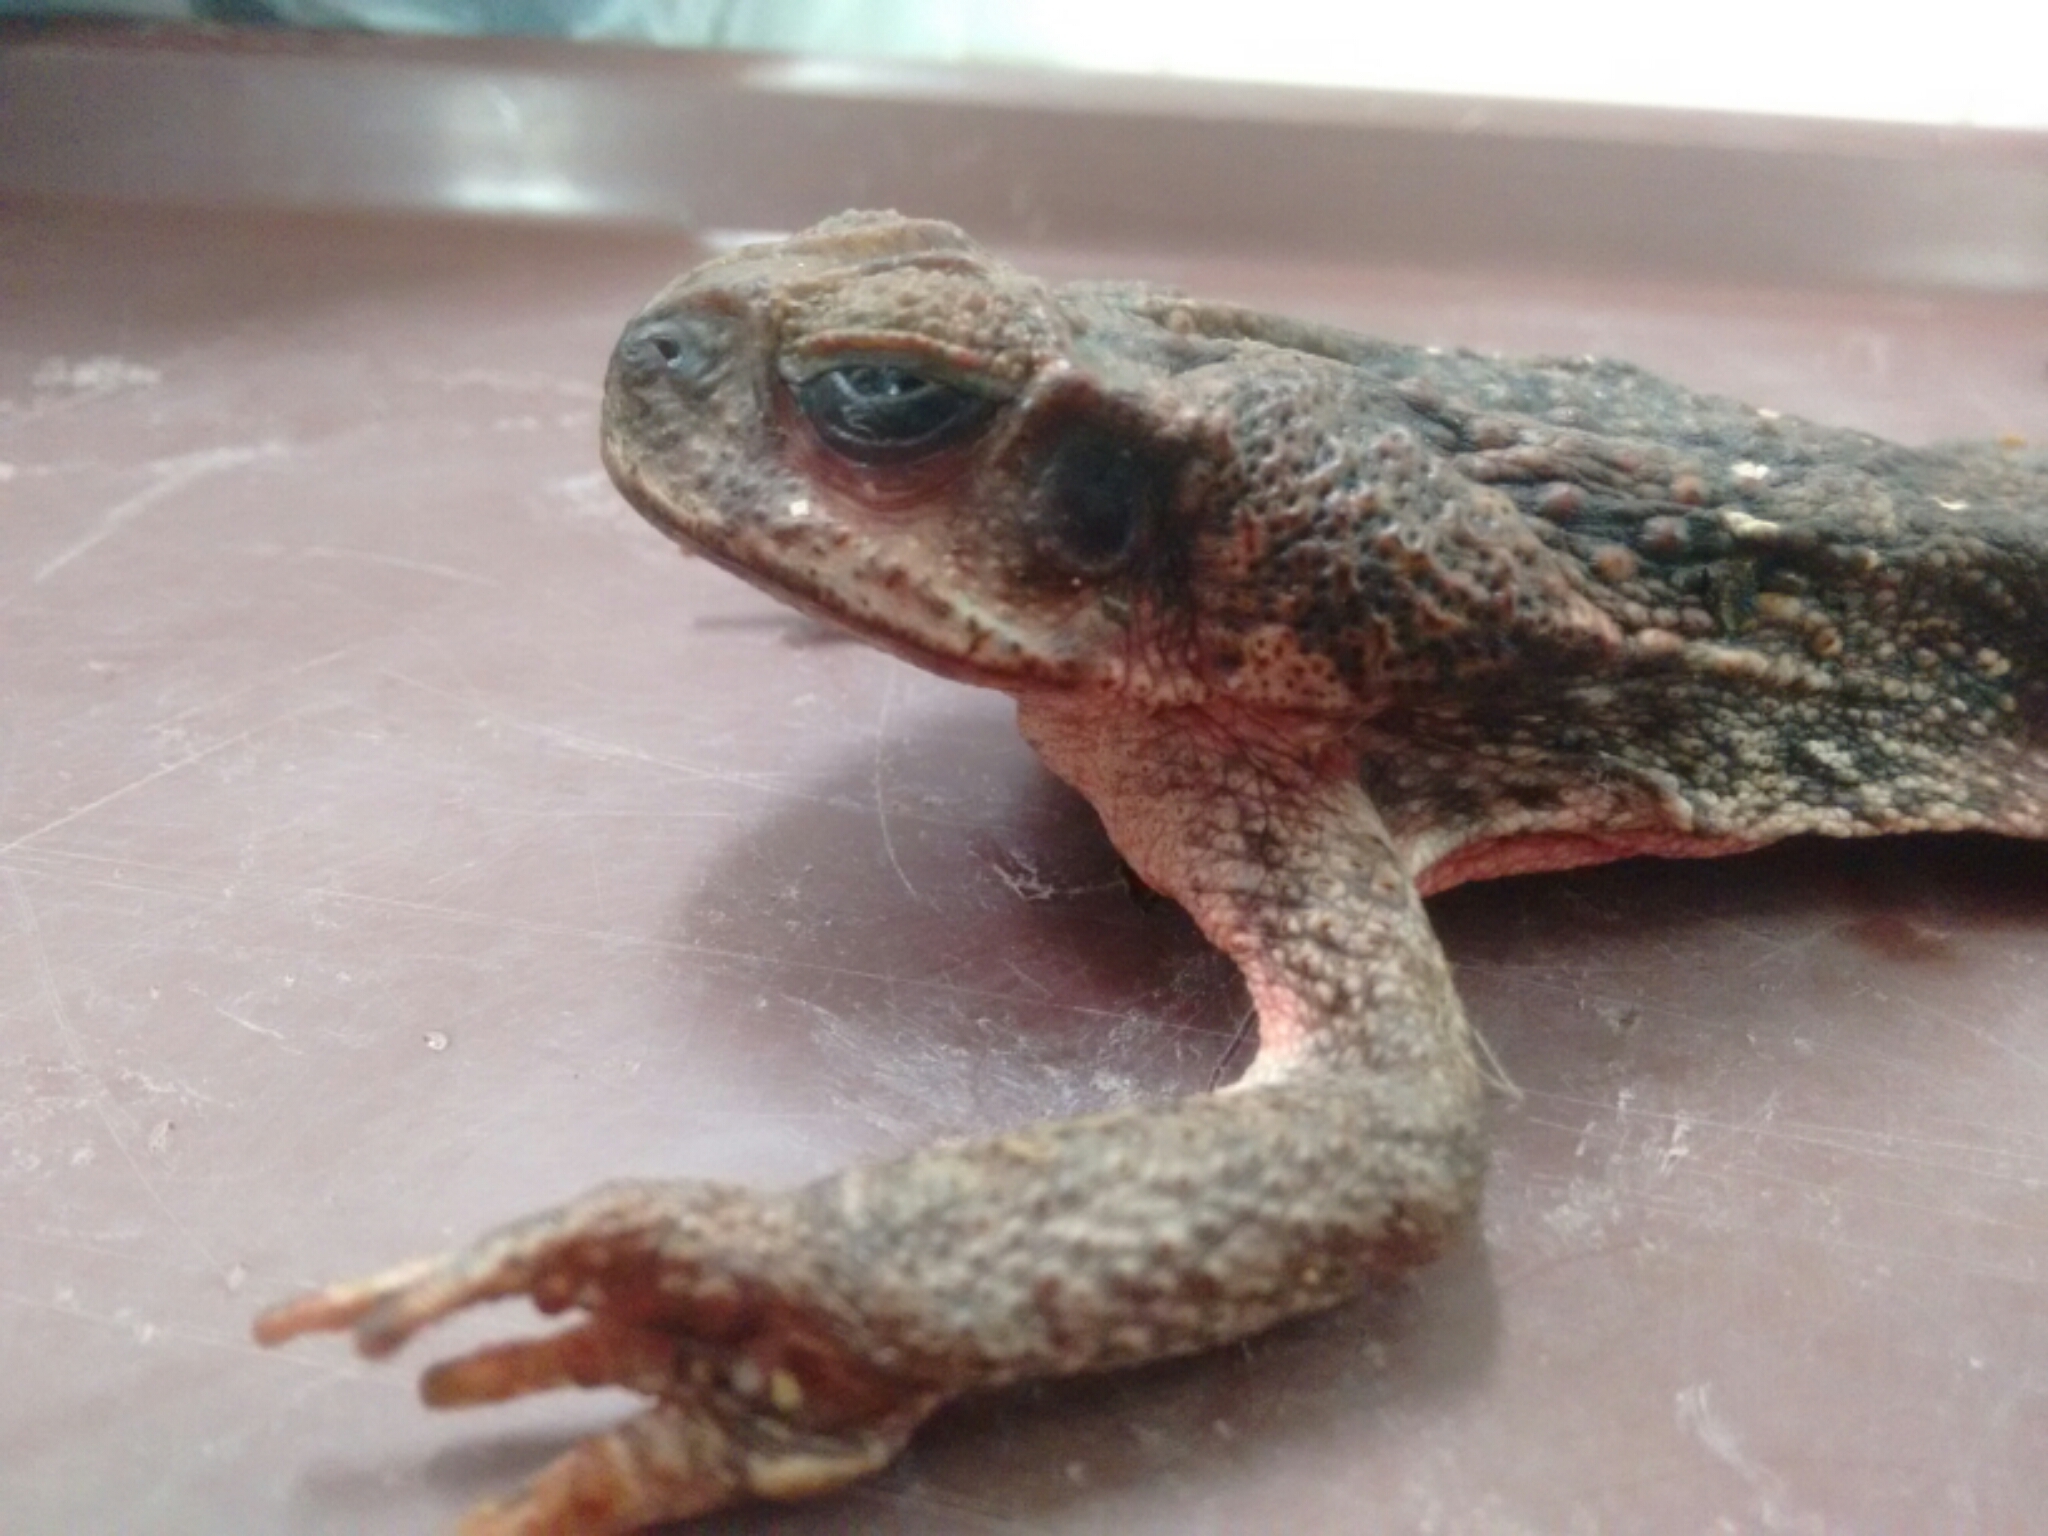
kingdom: Animalia
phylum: Chordata
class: Amphibia
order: Anura
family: Bufonidae
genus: Rhinella
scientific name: Rhinella horribilis
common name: Mesoamerican cane toad
